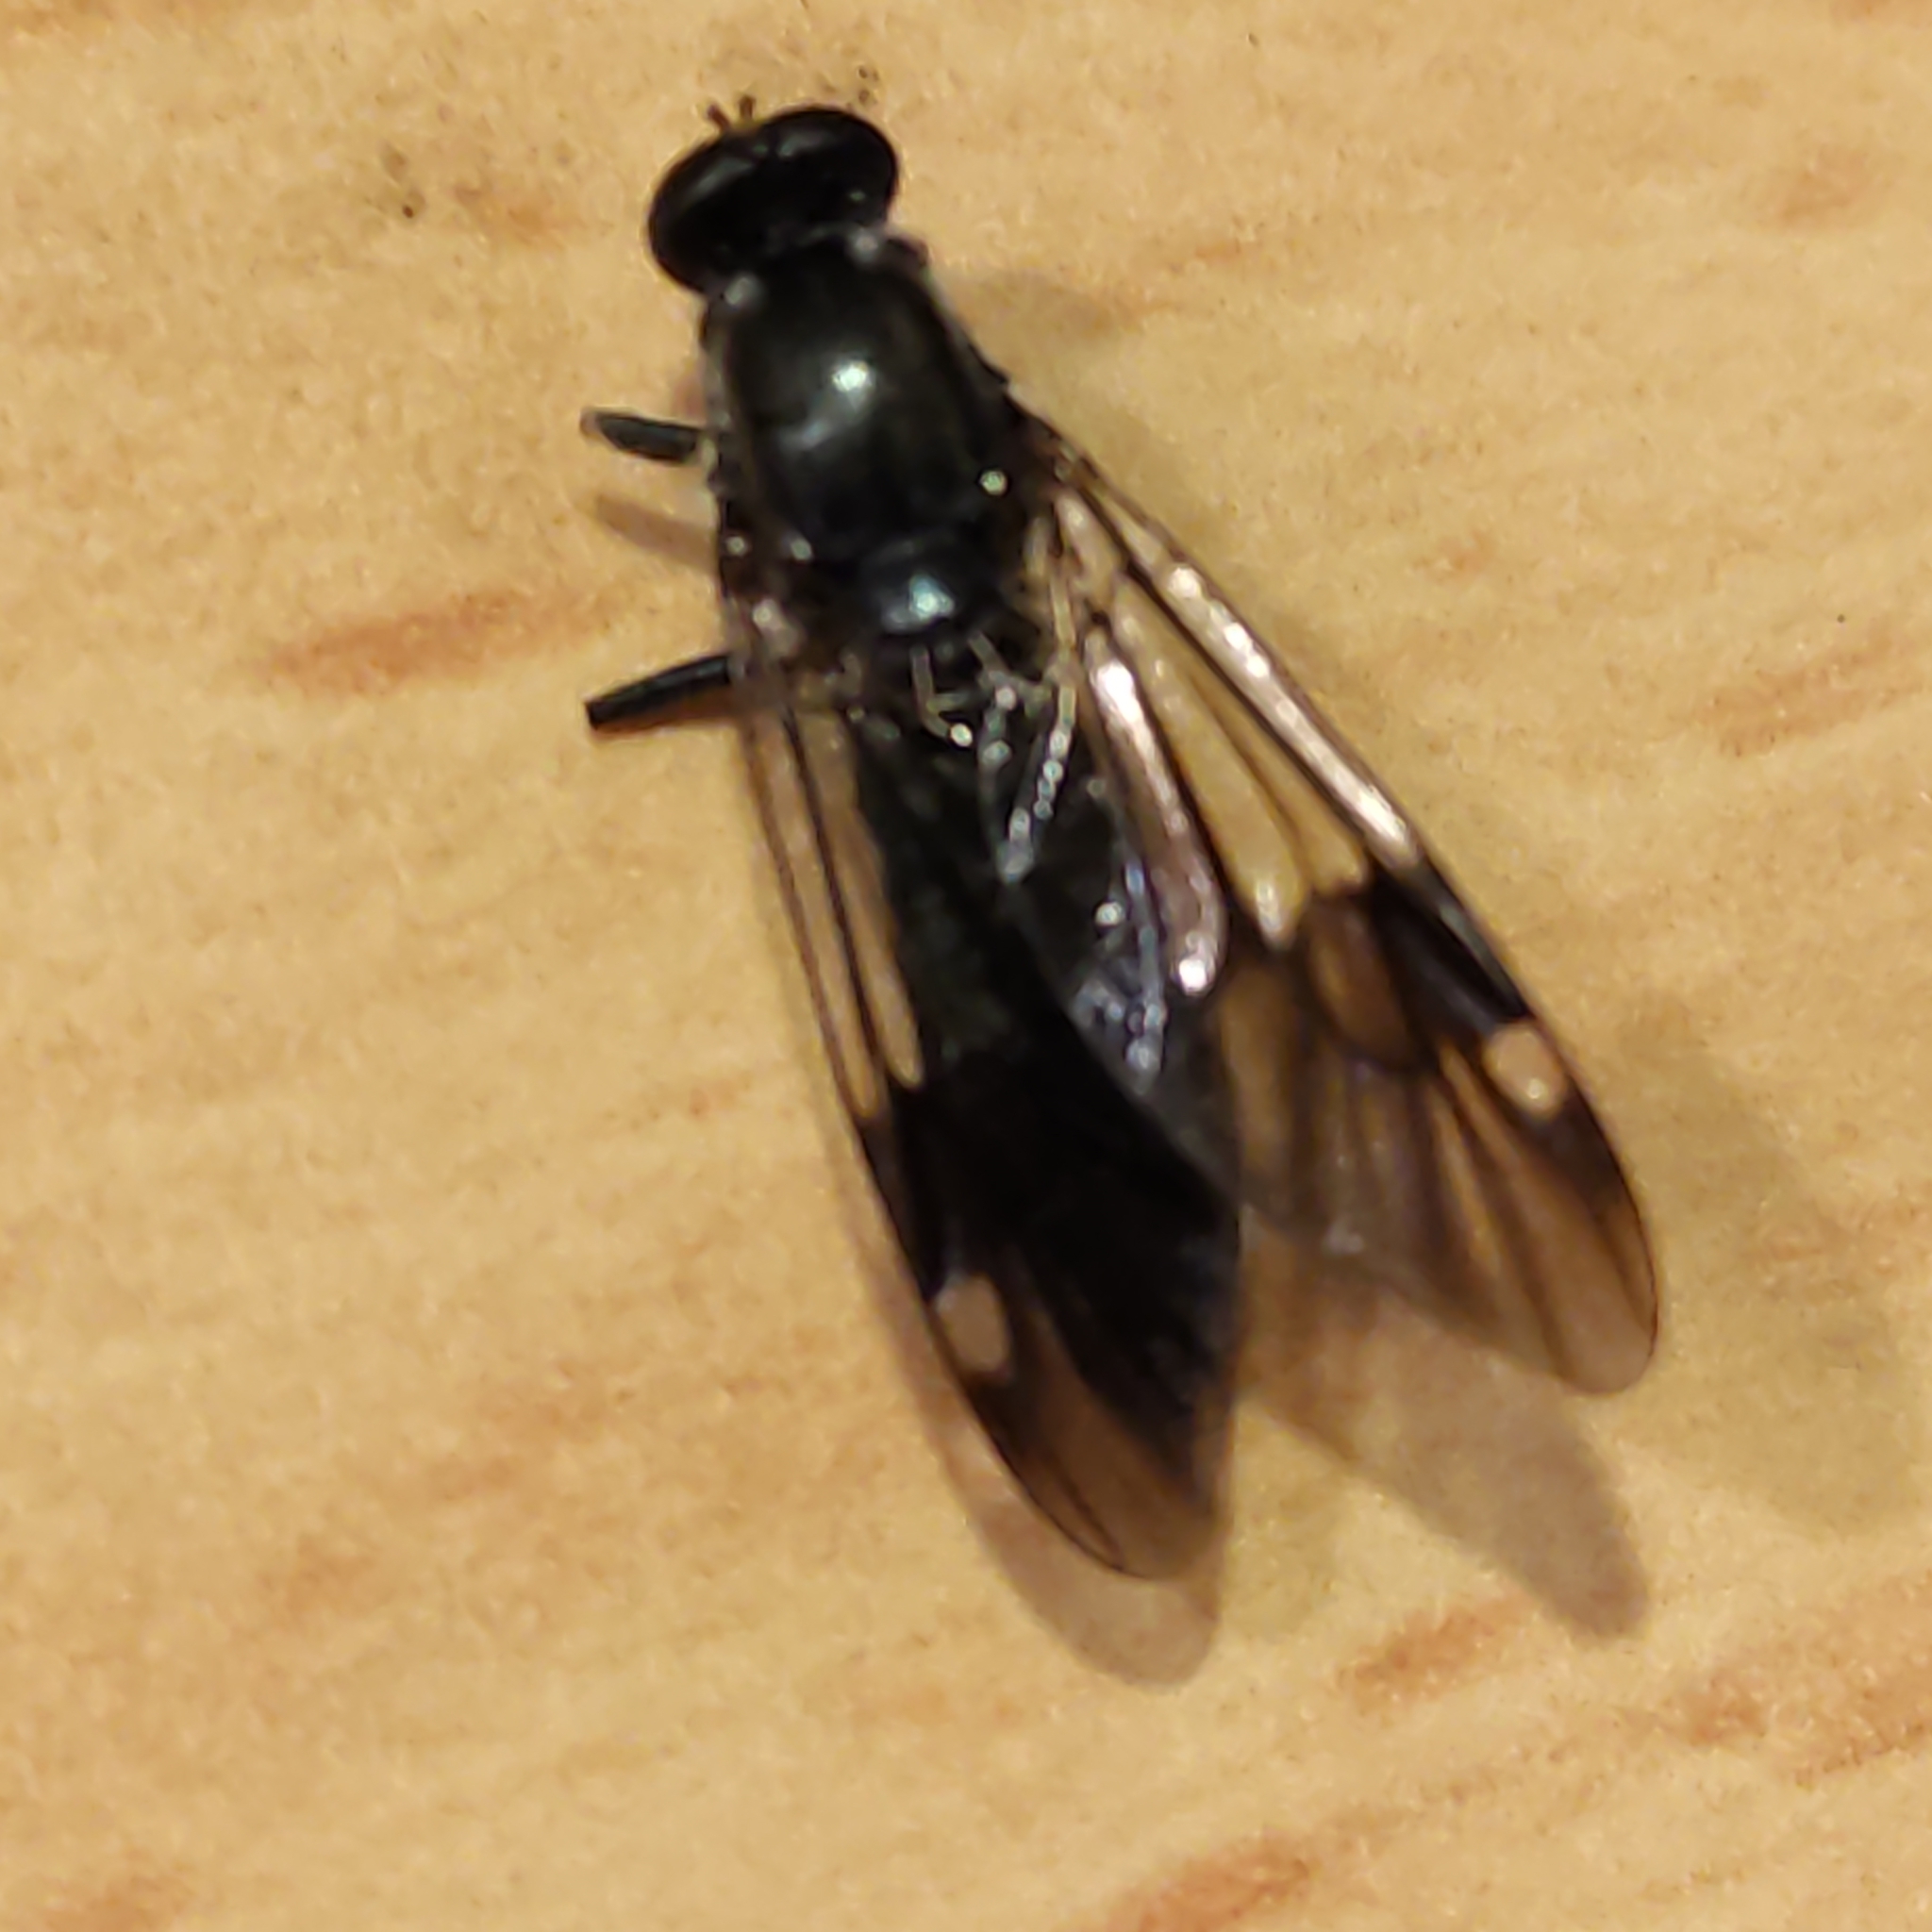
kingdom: Animalia
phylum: Arthropoda
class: Insecta
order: Diptera
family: Stratiomyidae
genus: Exaireta
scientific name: Exaireta spinigera
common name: Blue soldier fly
